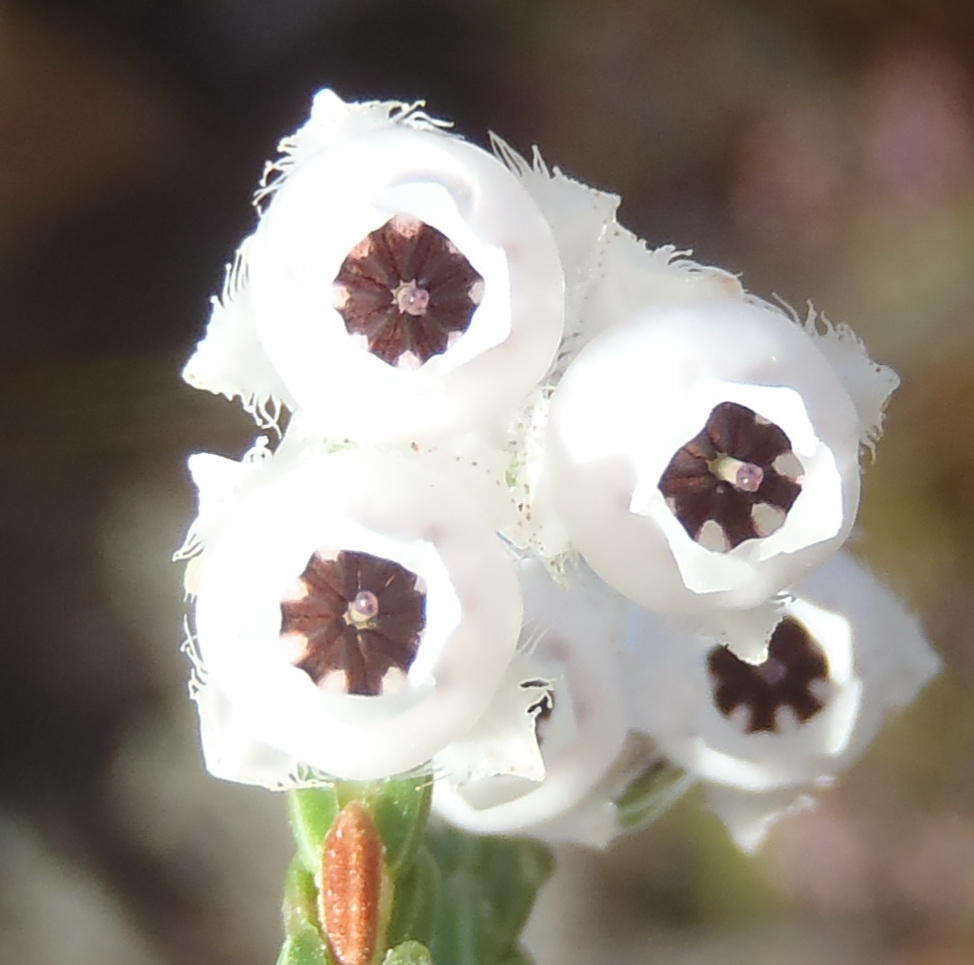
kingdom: Plantae
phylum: Tracheophyta
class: Magnoliopsida
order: Ericales
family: Ericaceae
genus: Erica
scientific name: Erica fimbriata
